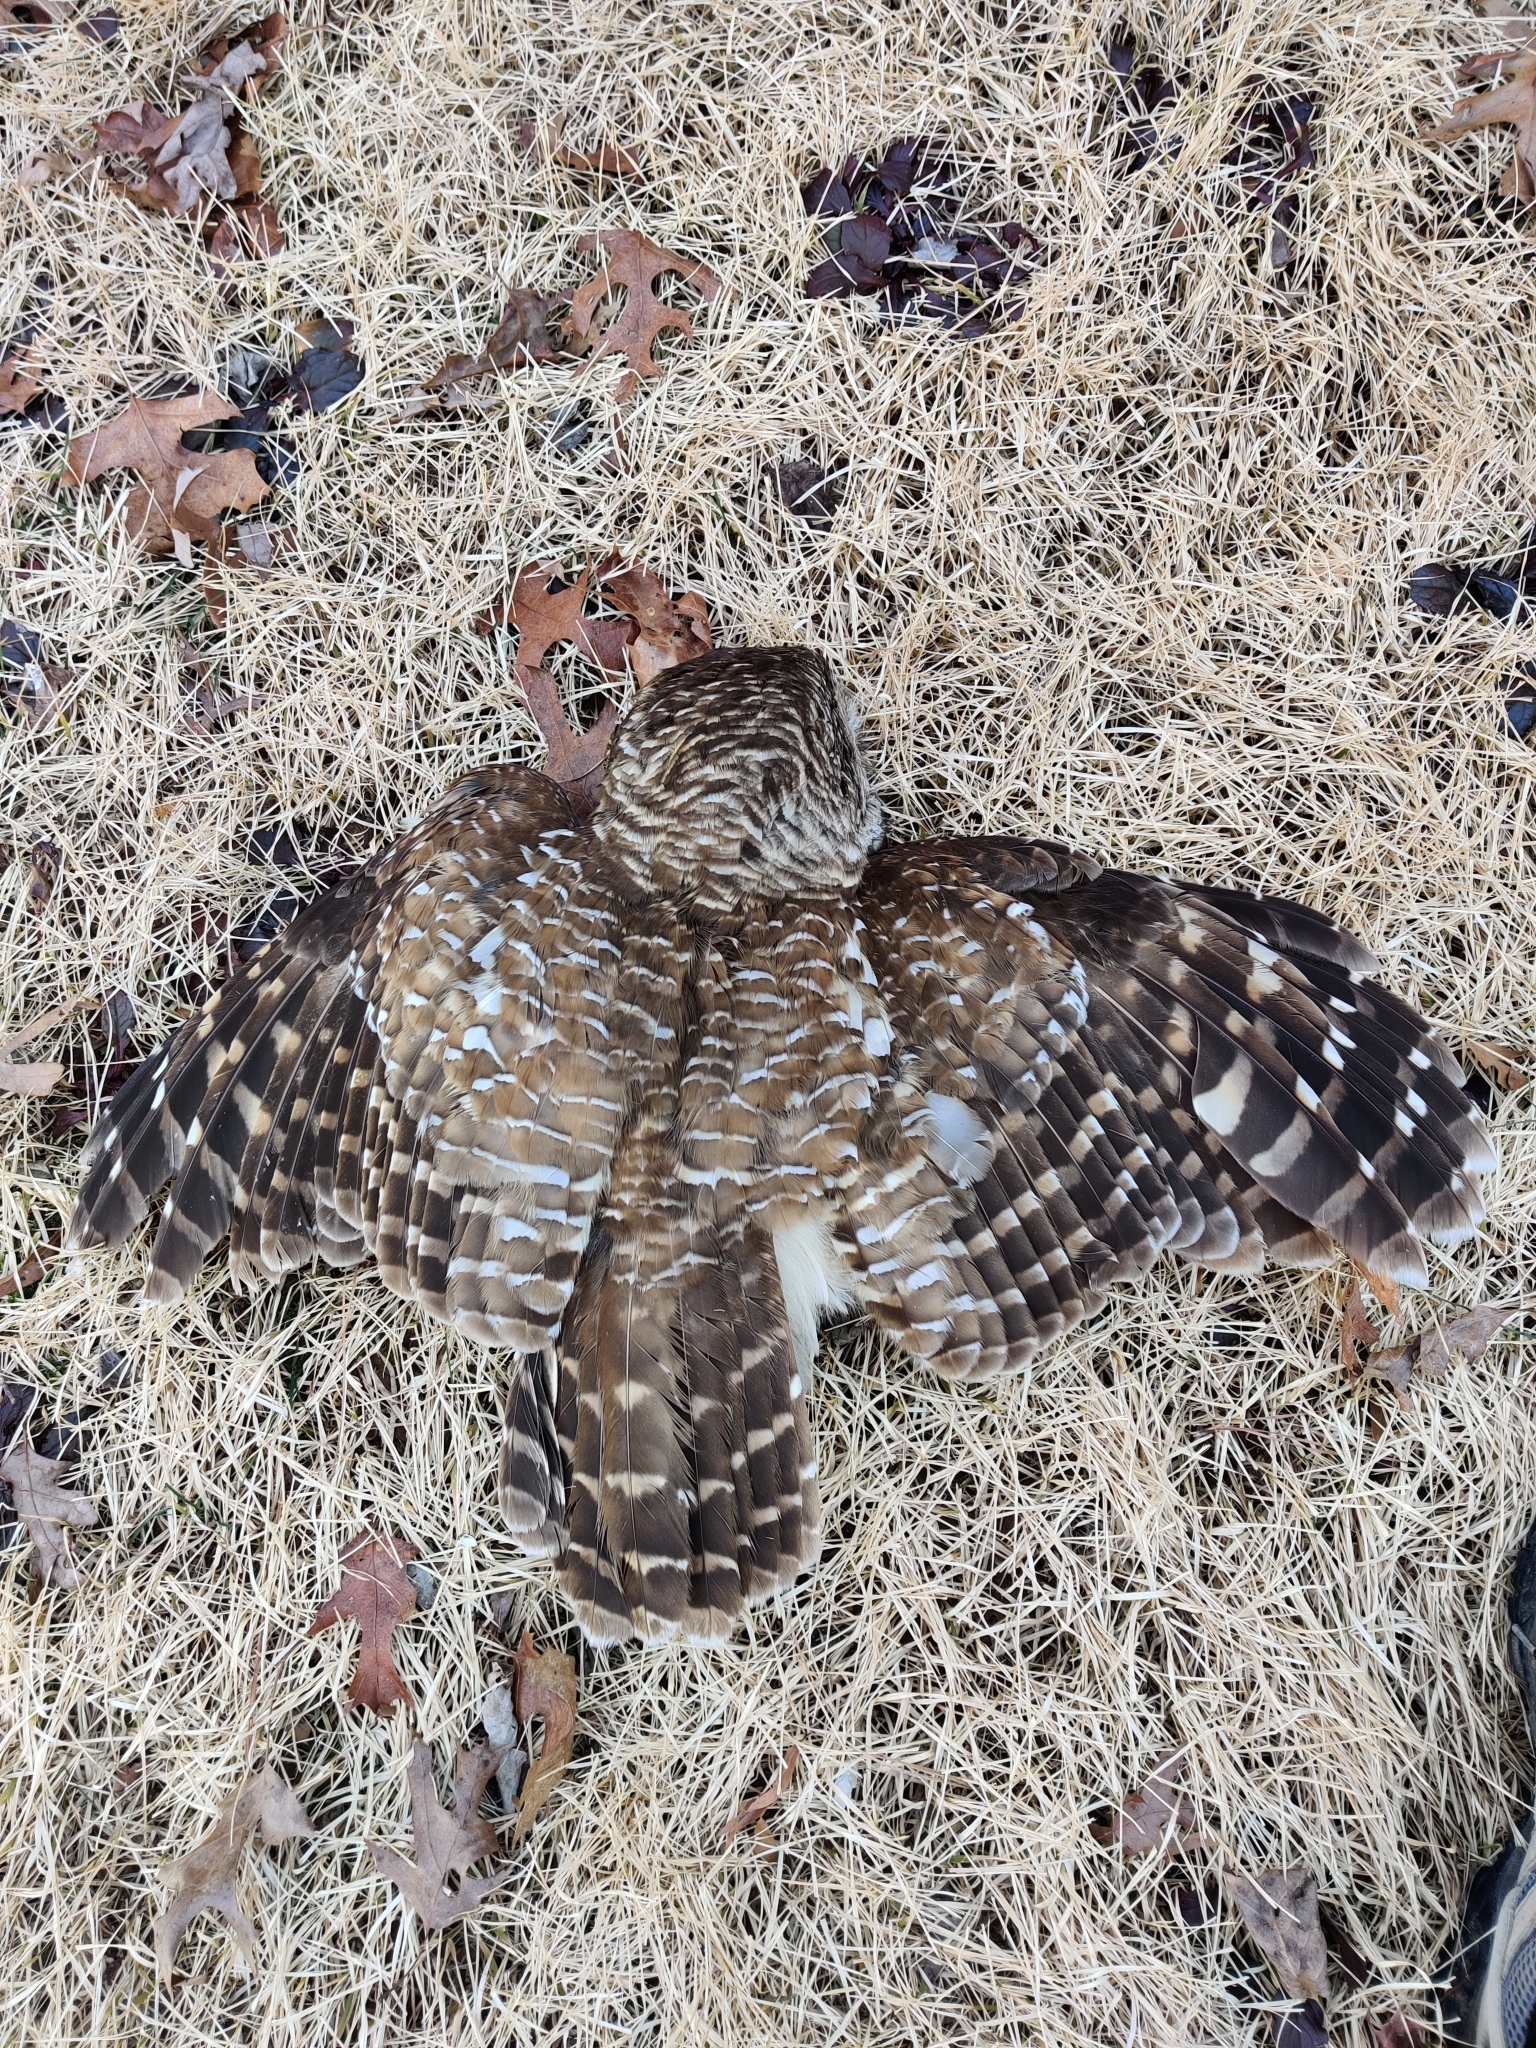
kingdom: Animalia
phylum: Chordata
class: Aves
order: Strigiformes
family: Strigidae
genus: Strix
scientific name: Strix varia
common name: Barred owl
